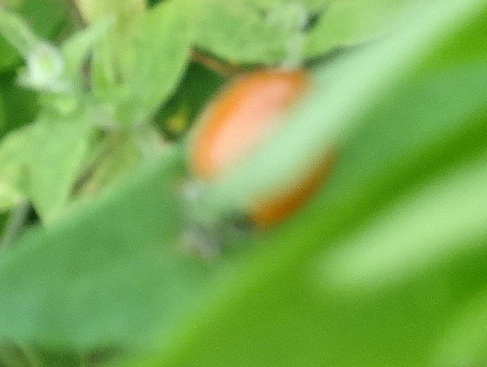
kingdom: Animalia
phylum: Arthropoda
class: Insecta
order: Coleoptera
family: Coccinellidae
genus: Cycloneda
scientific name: Cycloneda munda
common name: Polished lady beetle
